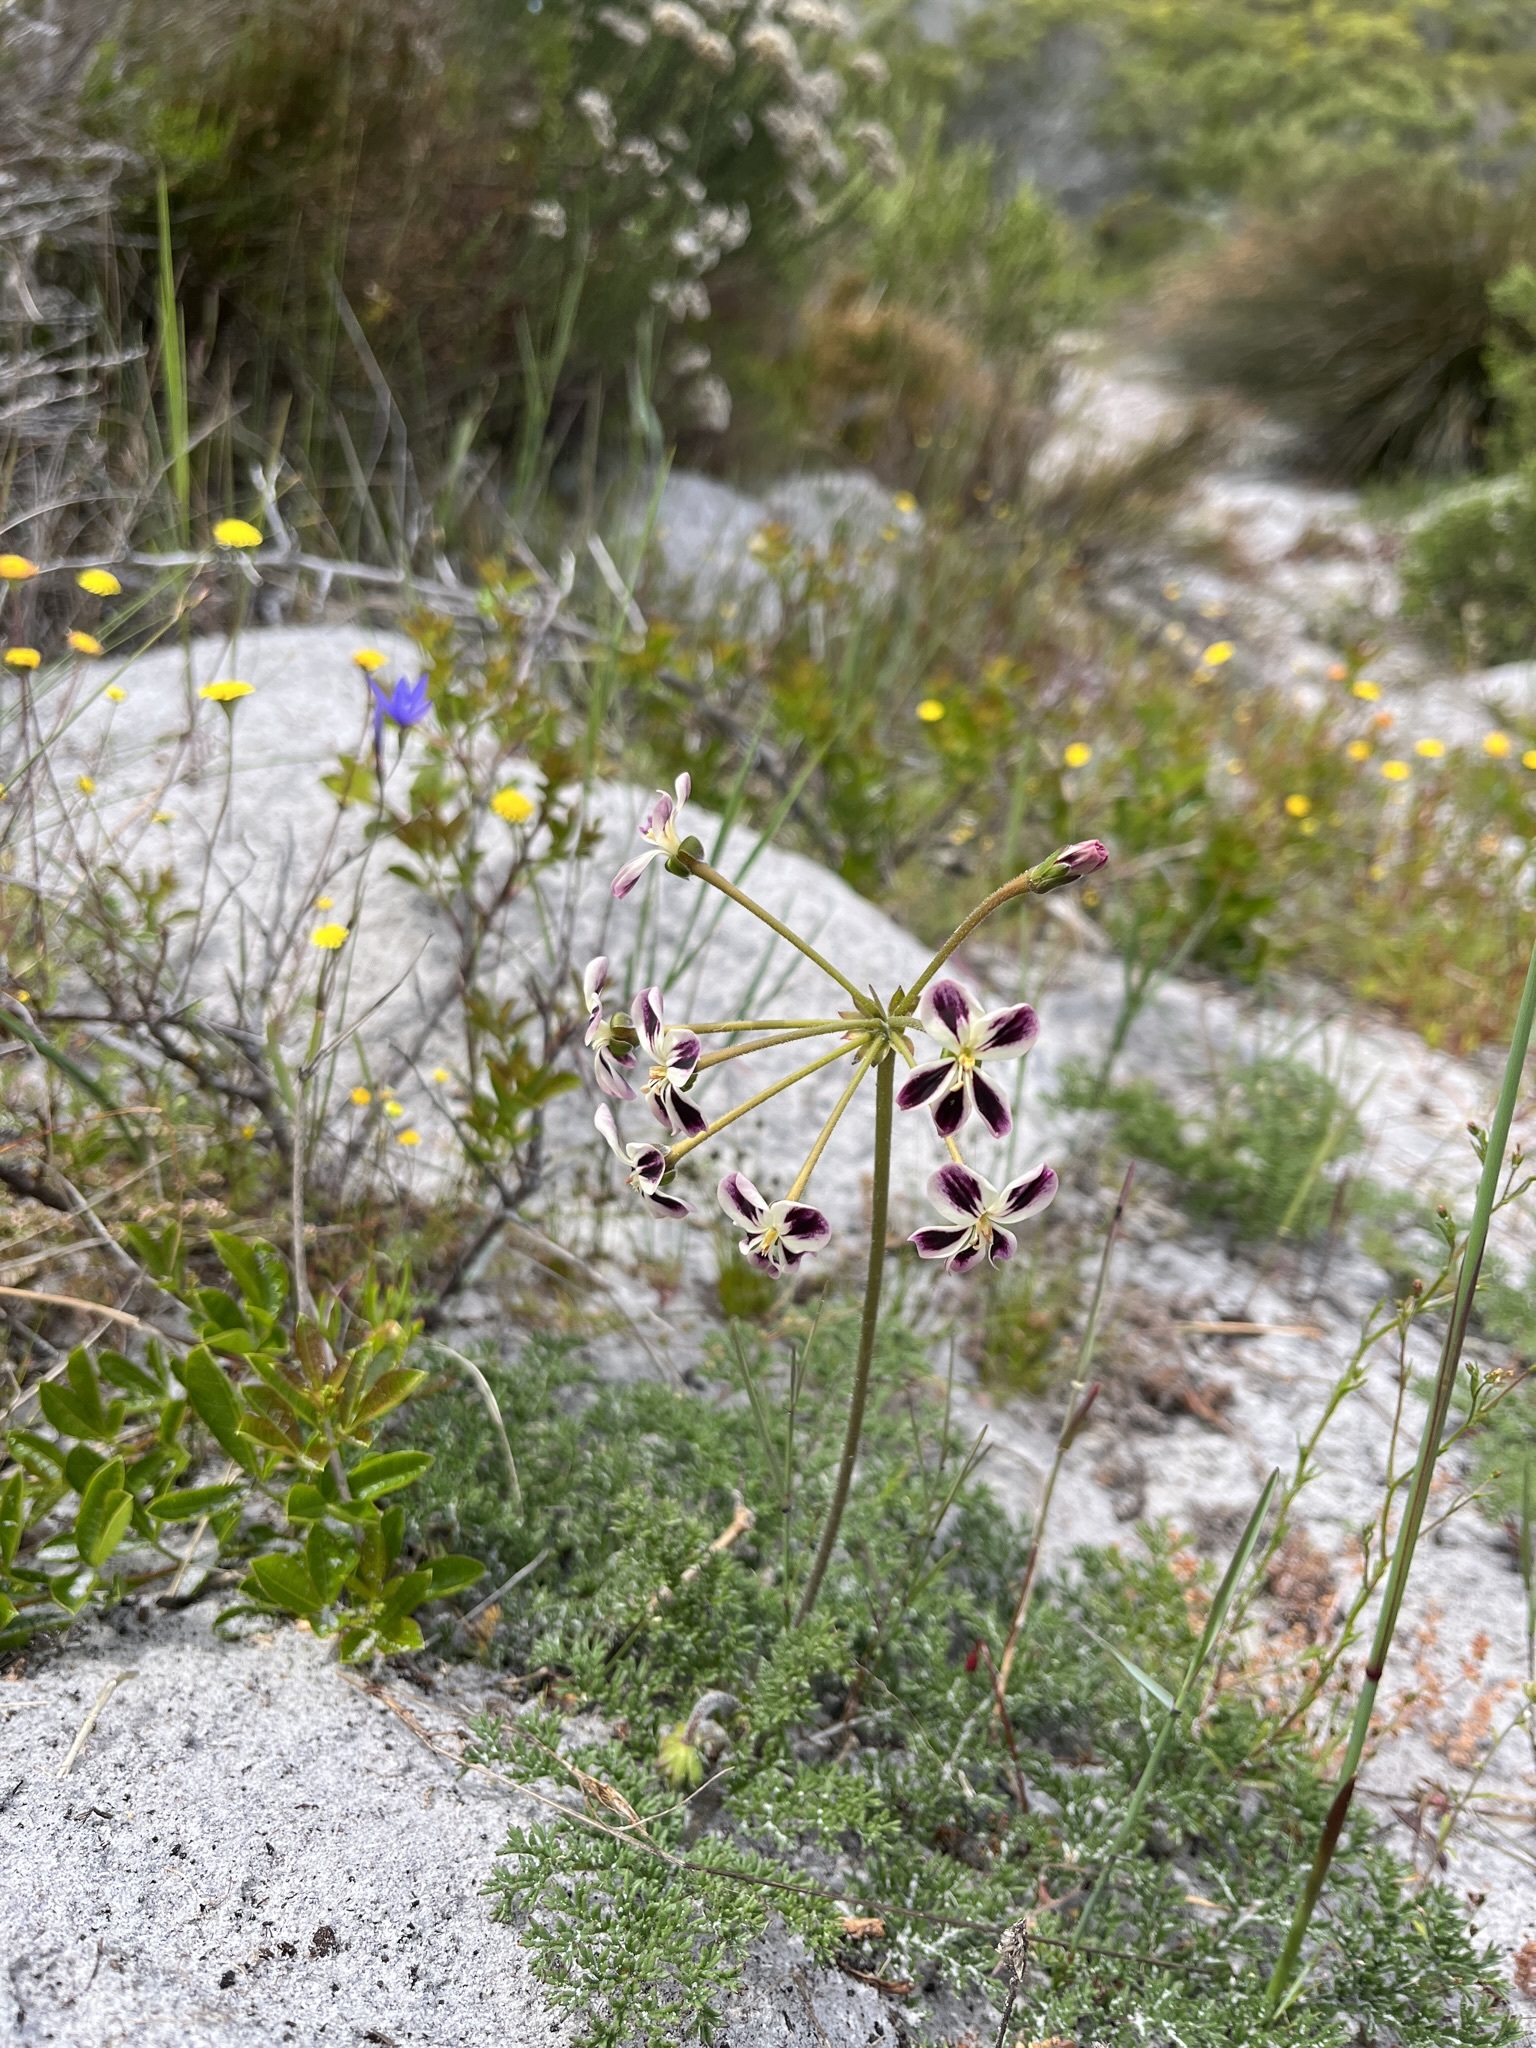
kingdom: Plantae
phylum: Tracheophyta
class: Magnoliopsida
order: Geraniales
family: Geraniaceae
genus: Pelargonium
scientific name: Pelargonium triste
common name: Night-scent pelargonium
